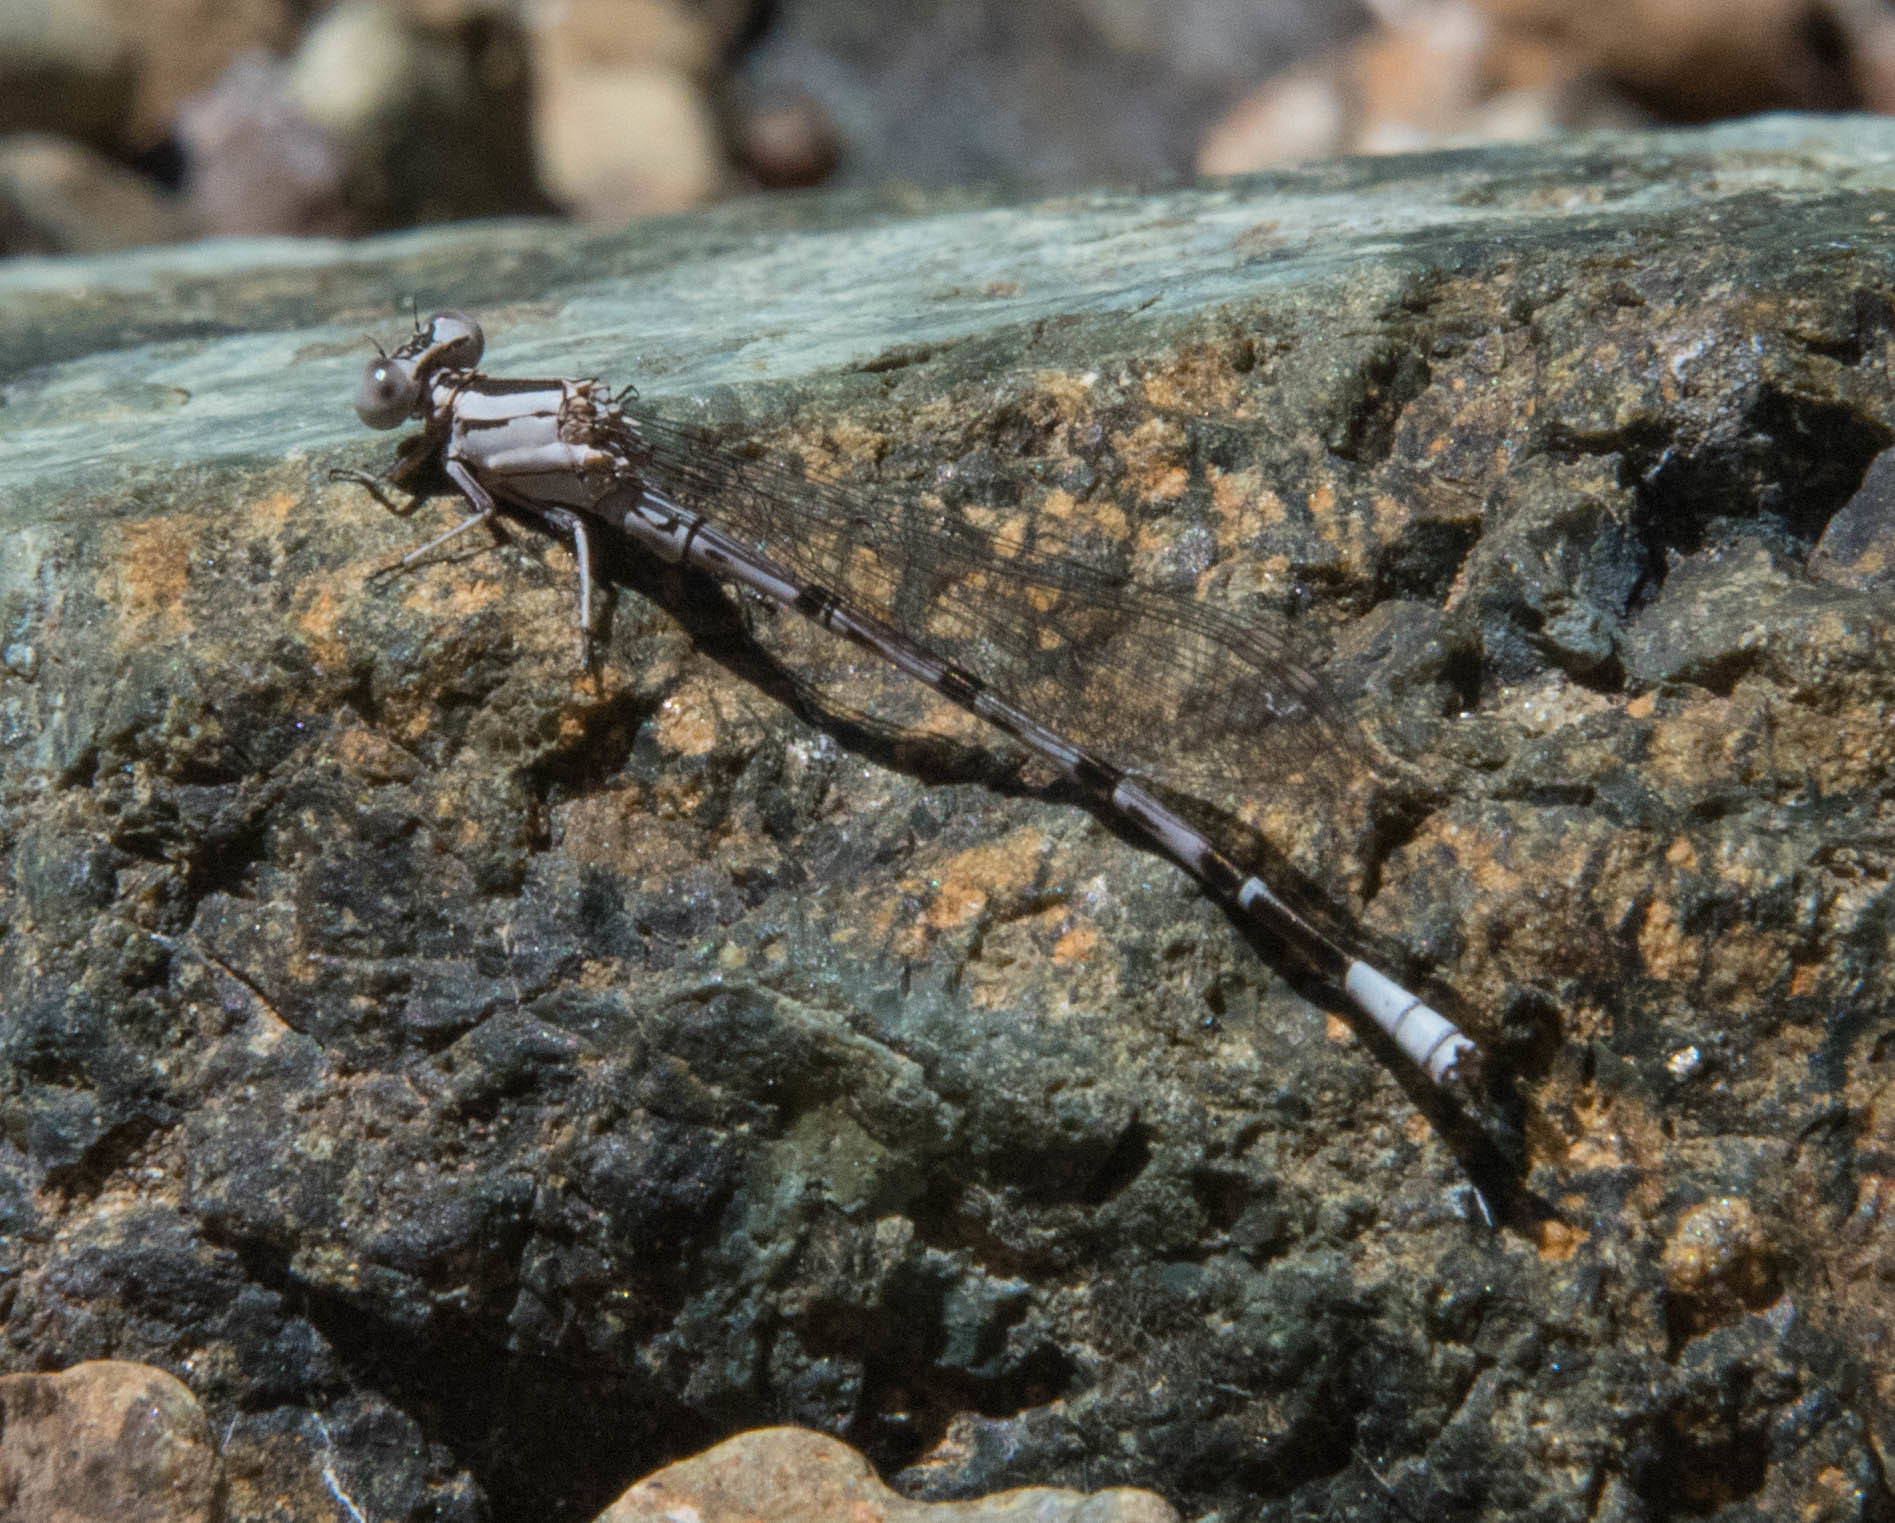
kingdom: Animalia
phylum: Arthropoda
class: Insecta
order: Odonata
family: Coenagrionidae
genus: Argia
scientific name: Argia vivida
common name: Vivid dancer
